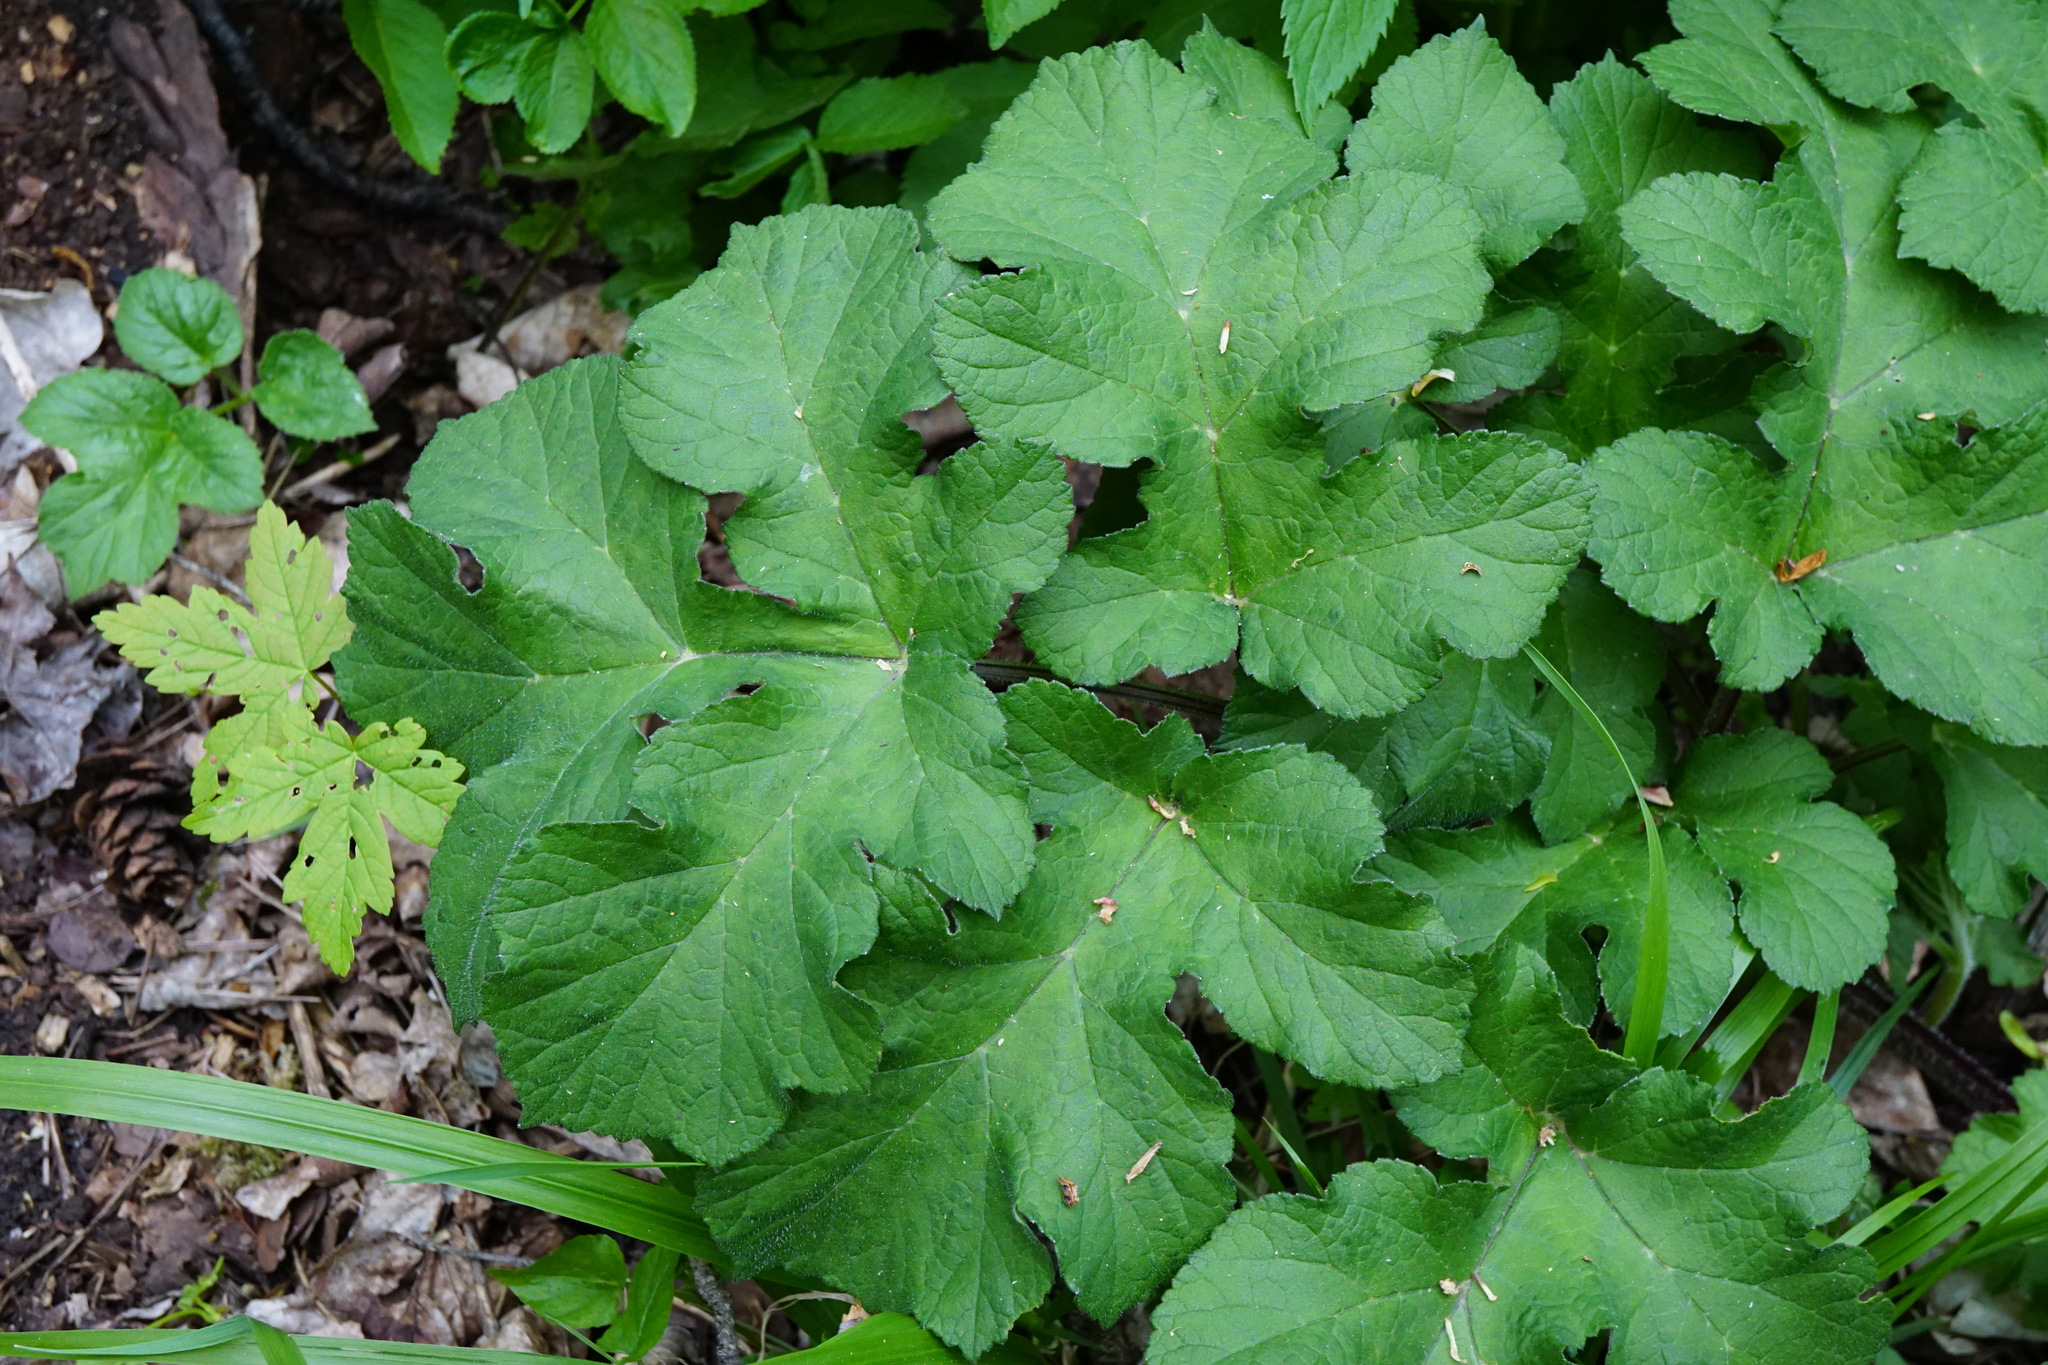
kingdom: Plantae
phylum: Tracheophyta
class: Magnoliopsida
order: Apiales
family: Apiaceae
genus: Heracleum
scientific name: Heracleum sphondylium
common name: Hogweed
